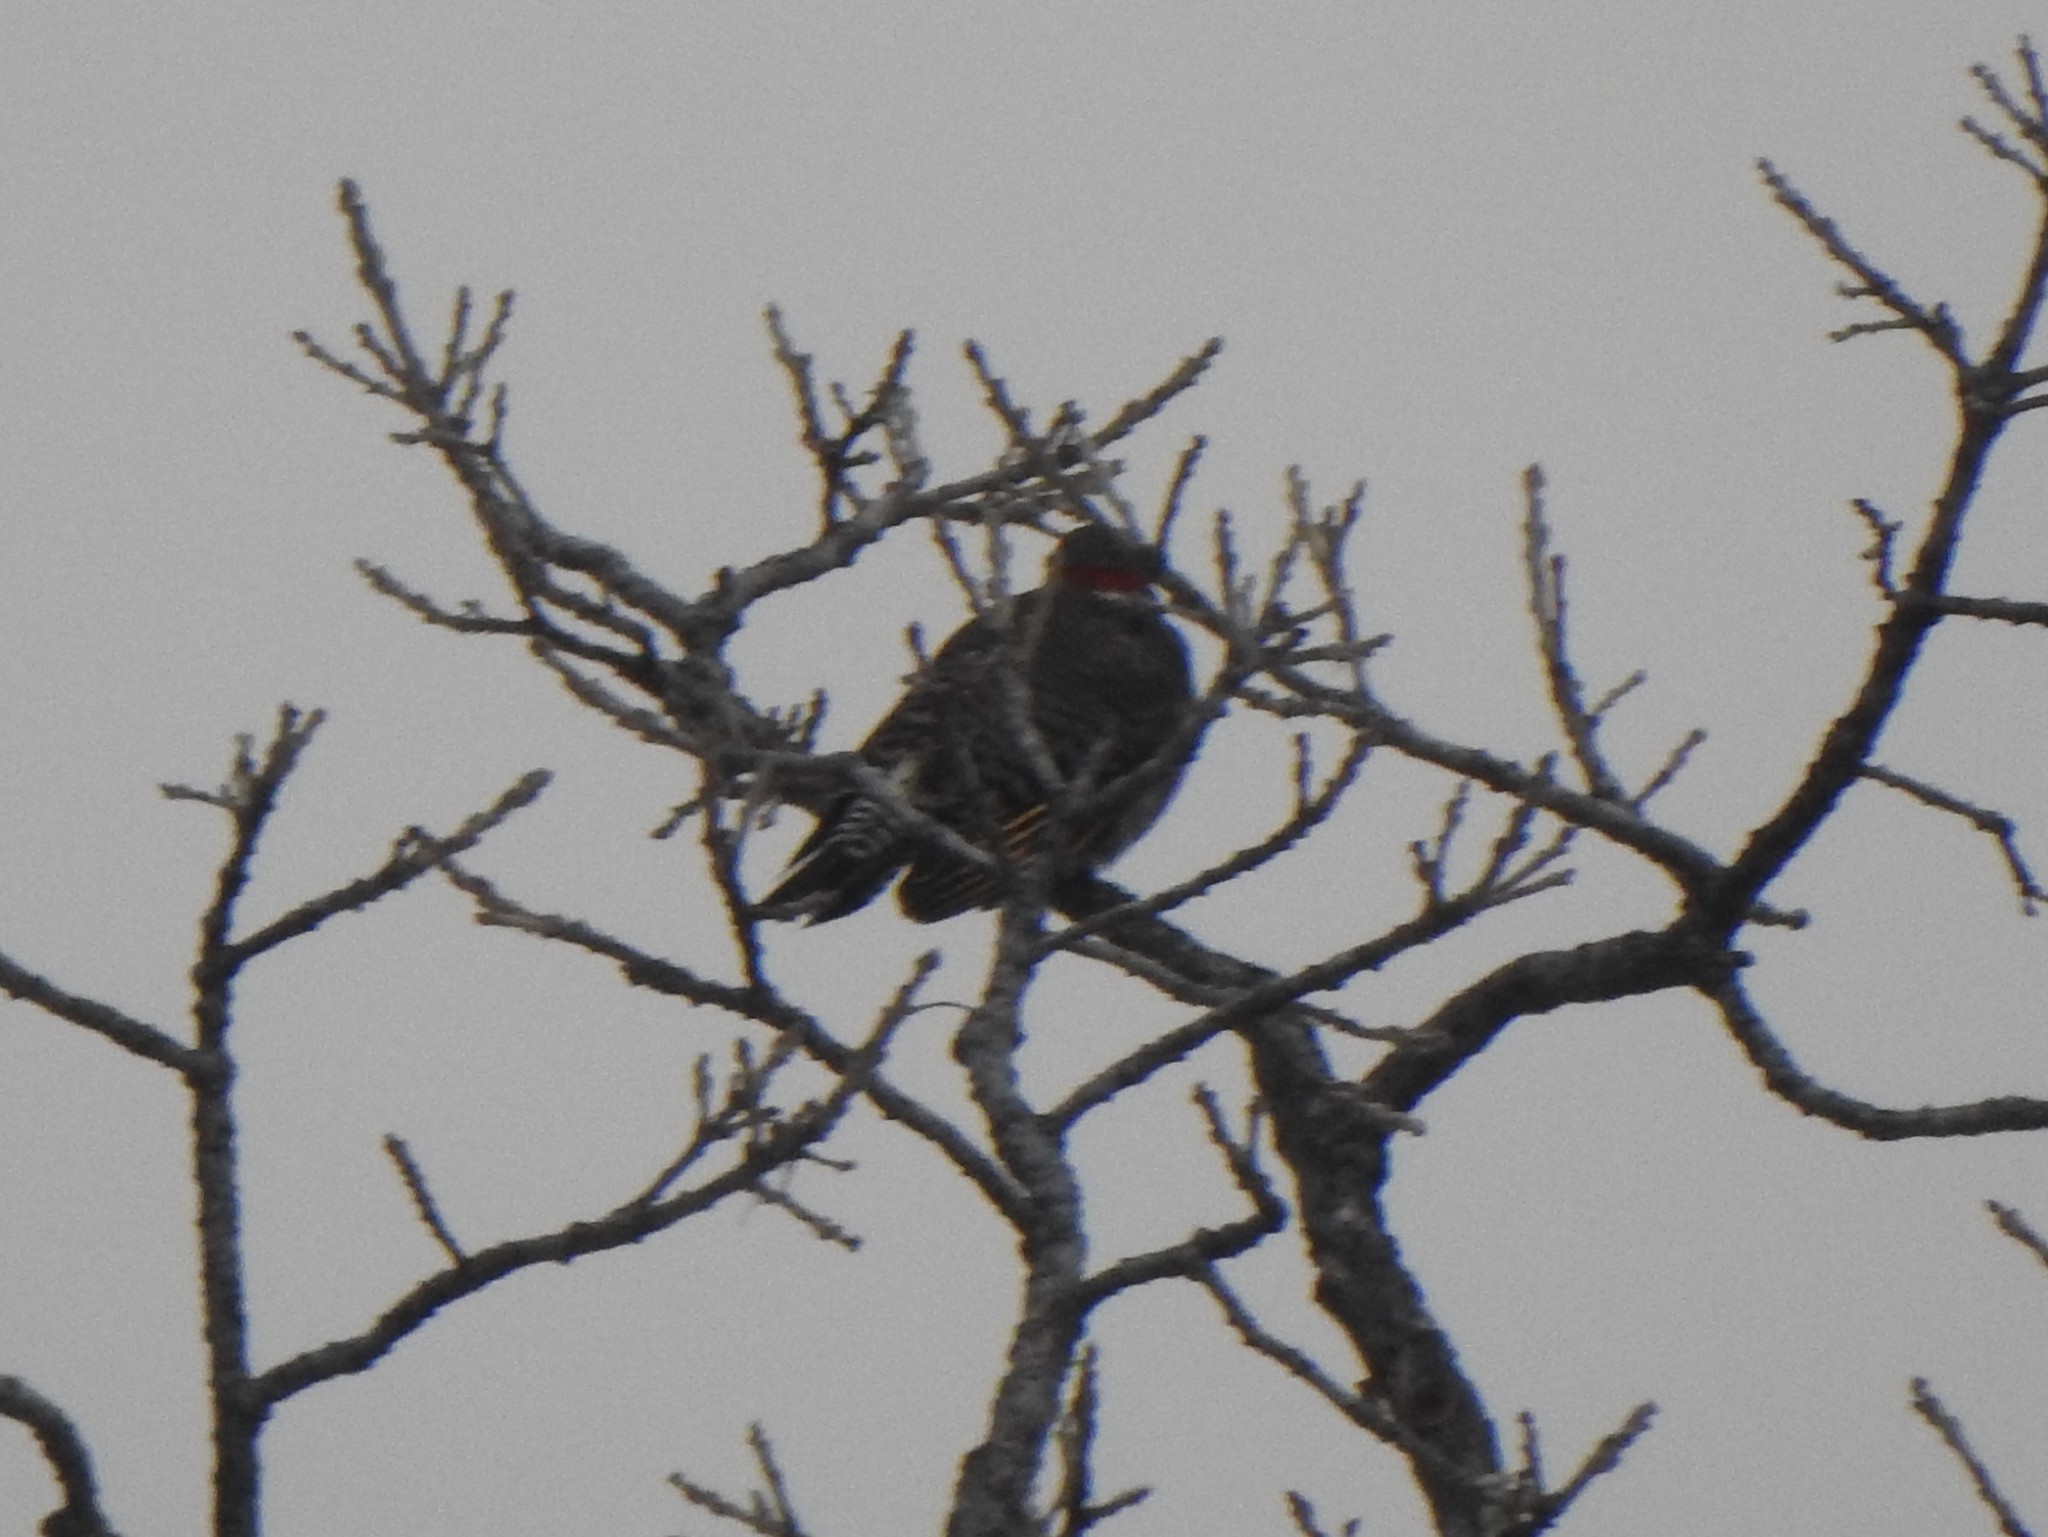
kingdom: Animalia
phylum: Chordata
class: Aves
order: Piciformes
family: Picidae
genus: Colaptes
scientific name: Colaptes auratus
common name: Northern flicker
